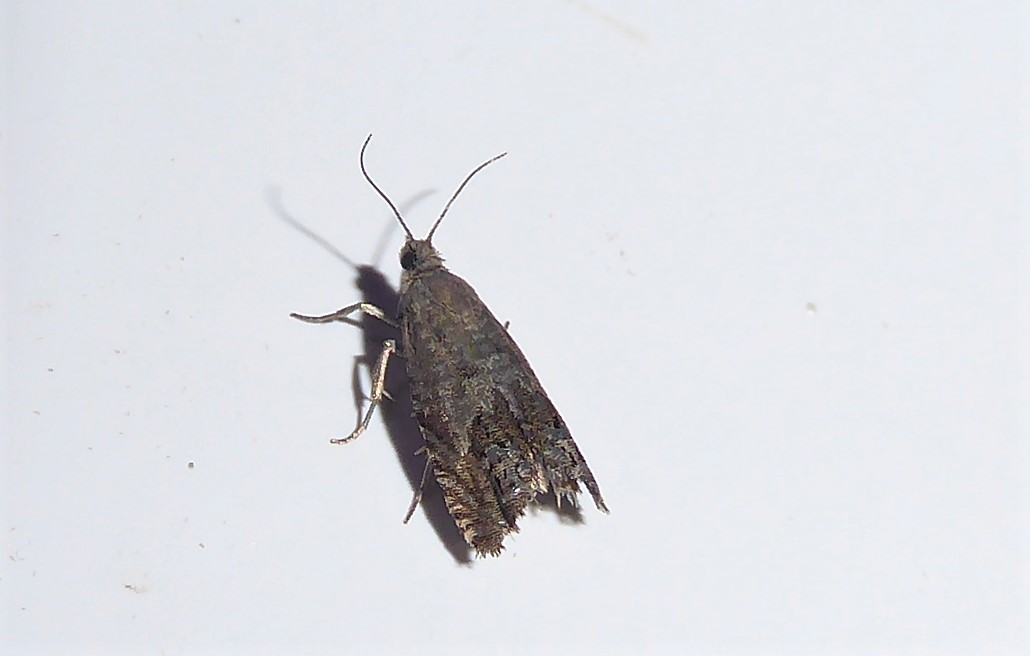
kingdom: Animalia
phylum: Arthropoda
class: Insecta
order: Lepidoptera
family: Tortricidae
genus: Cydia
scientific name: Cydia succedana
